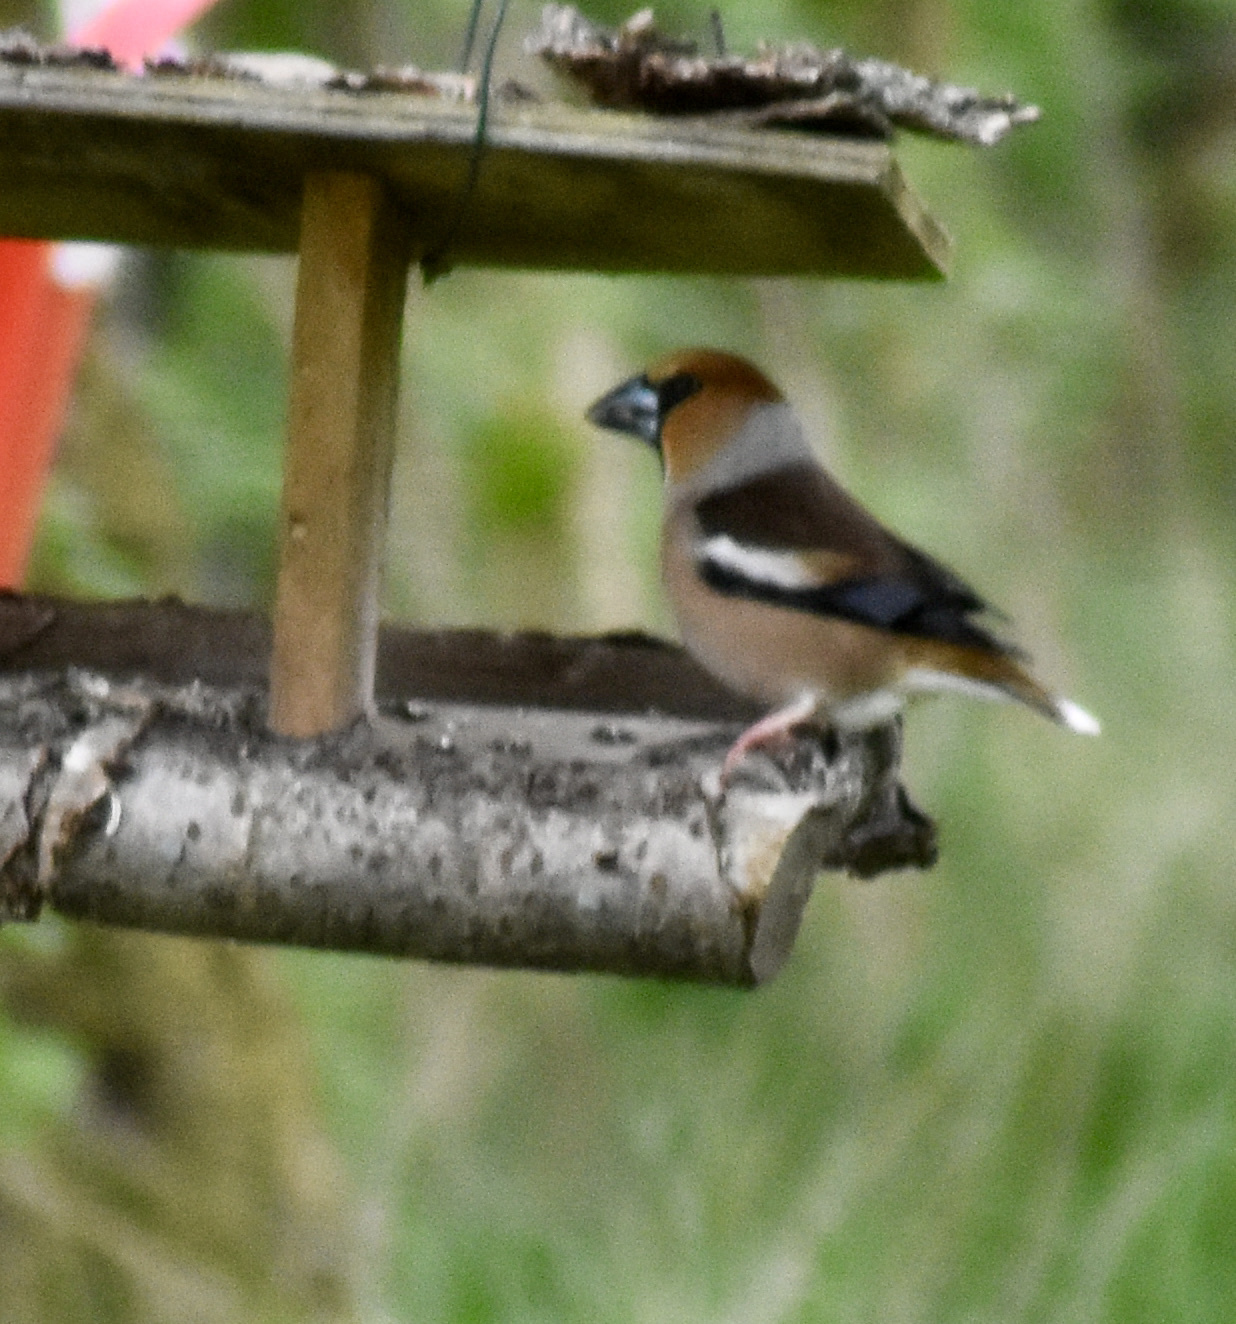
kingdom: Animalia
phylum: Chordata
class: Aves
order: Passeriformes
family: Fringillidae
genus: Coccothraustes
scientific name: Coccothraustes coccothraustes
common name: Hawfinch
